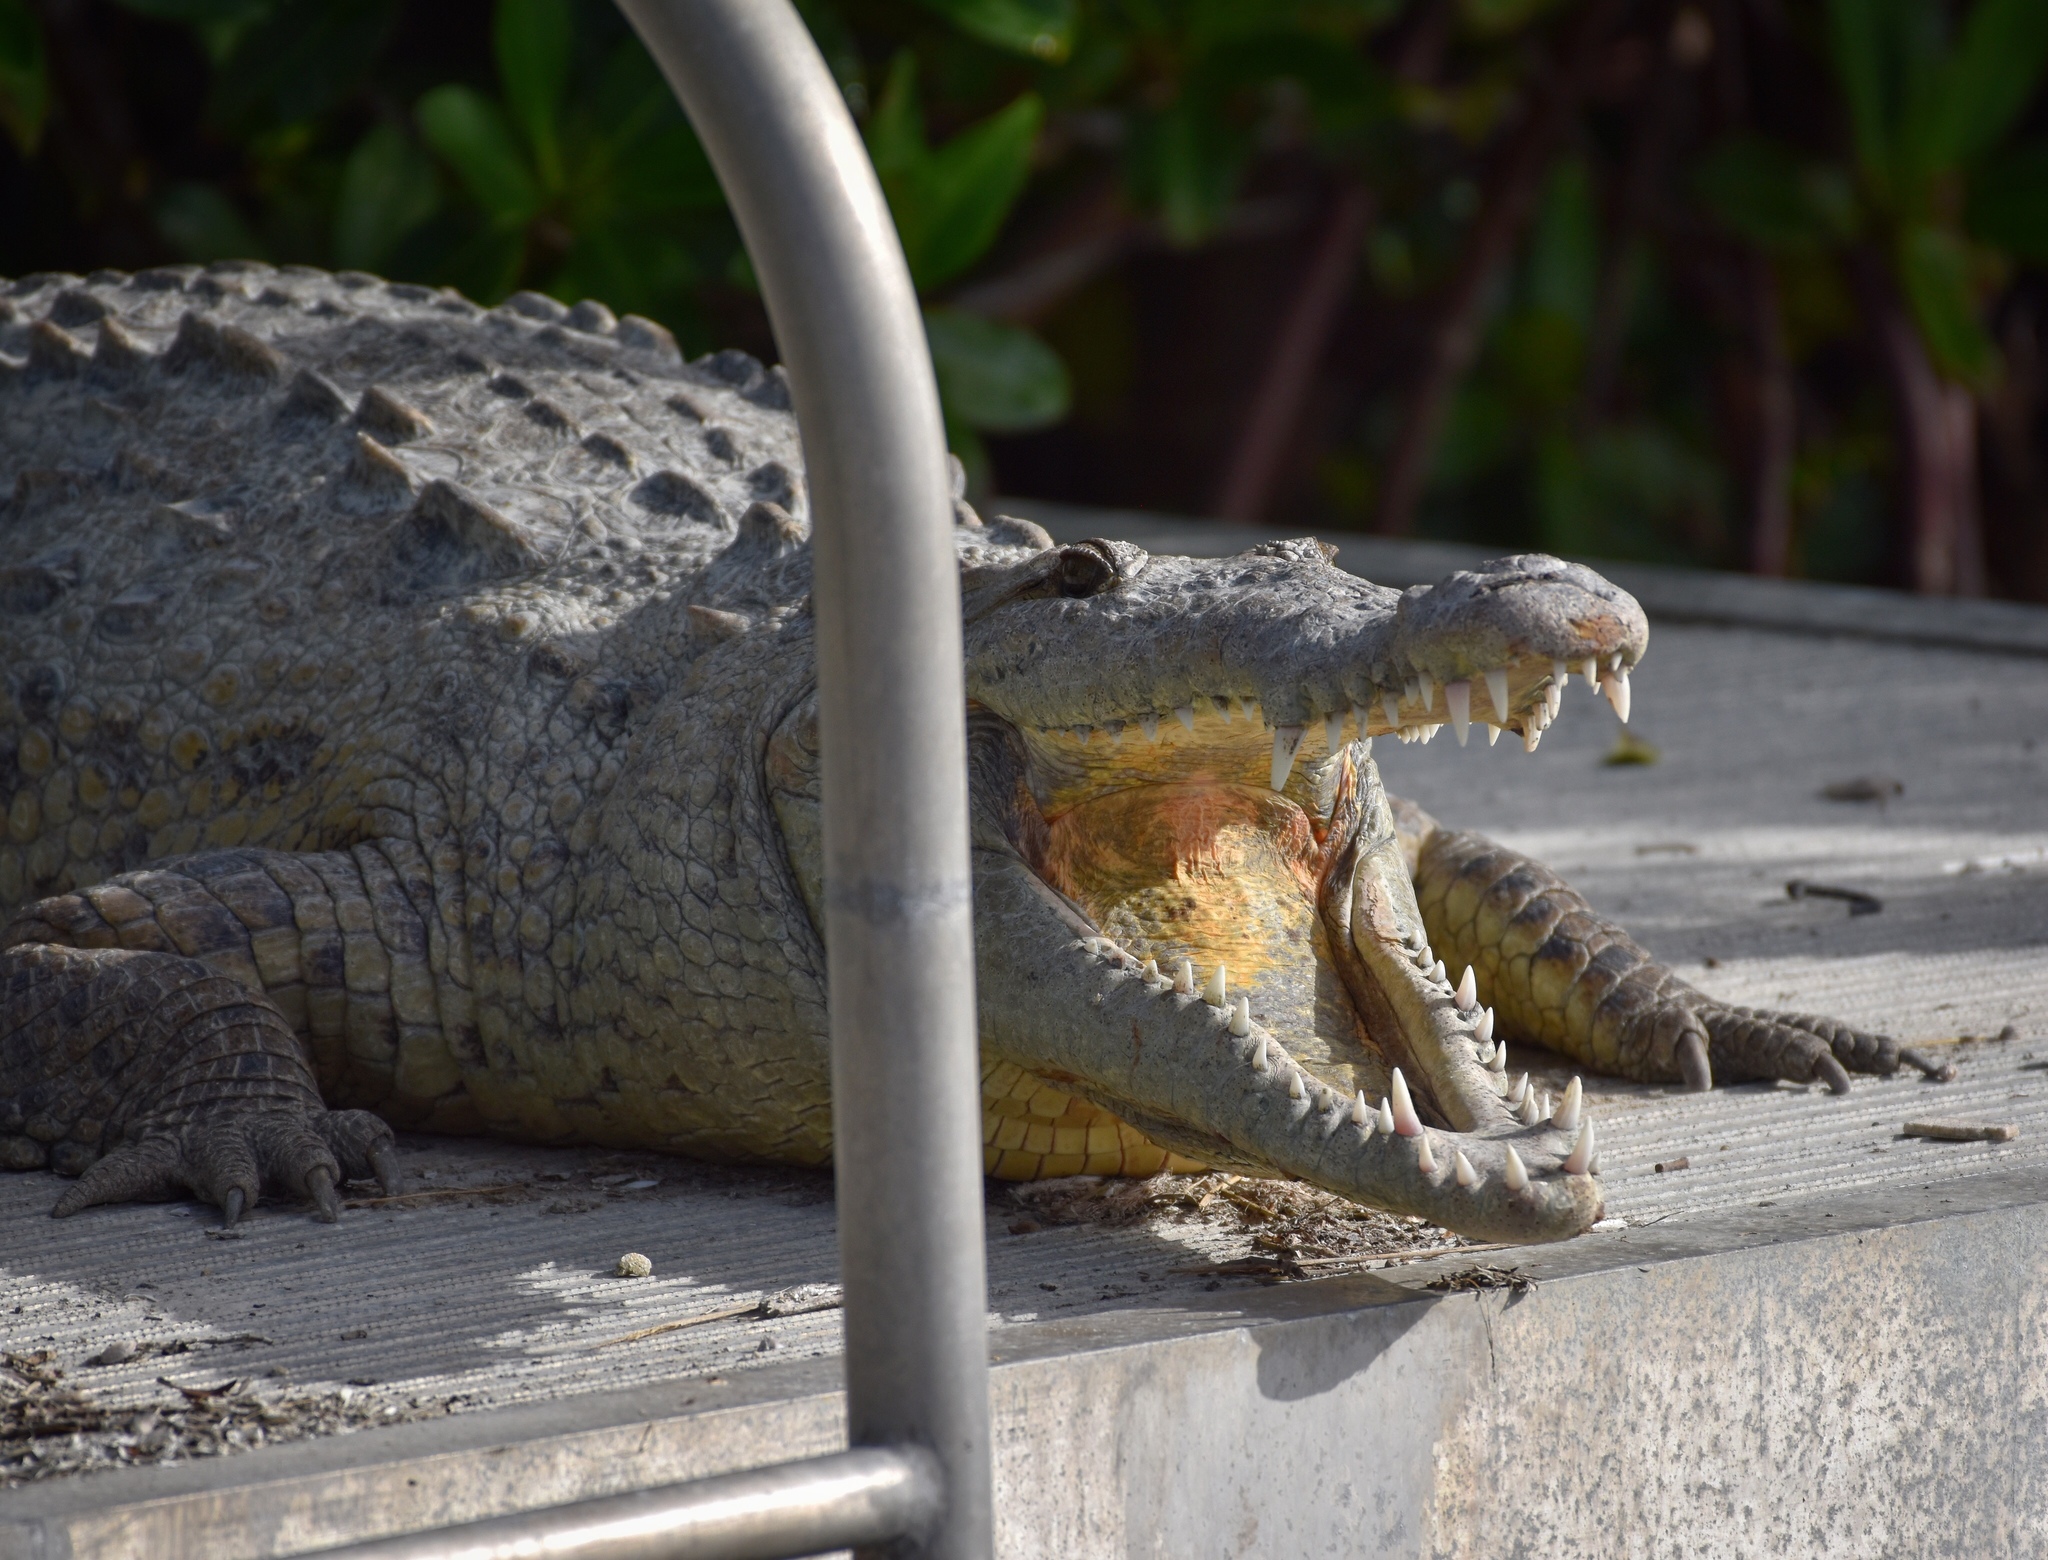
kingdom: Animalia
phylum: Chordata
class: Crocodylia
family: Crocodylidae
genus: Crocodylus
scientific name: Crocodylus acutus
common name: American crocodile
